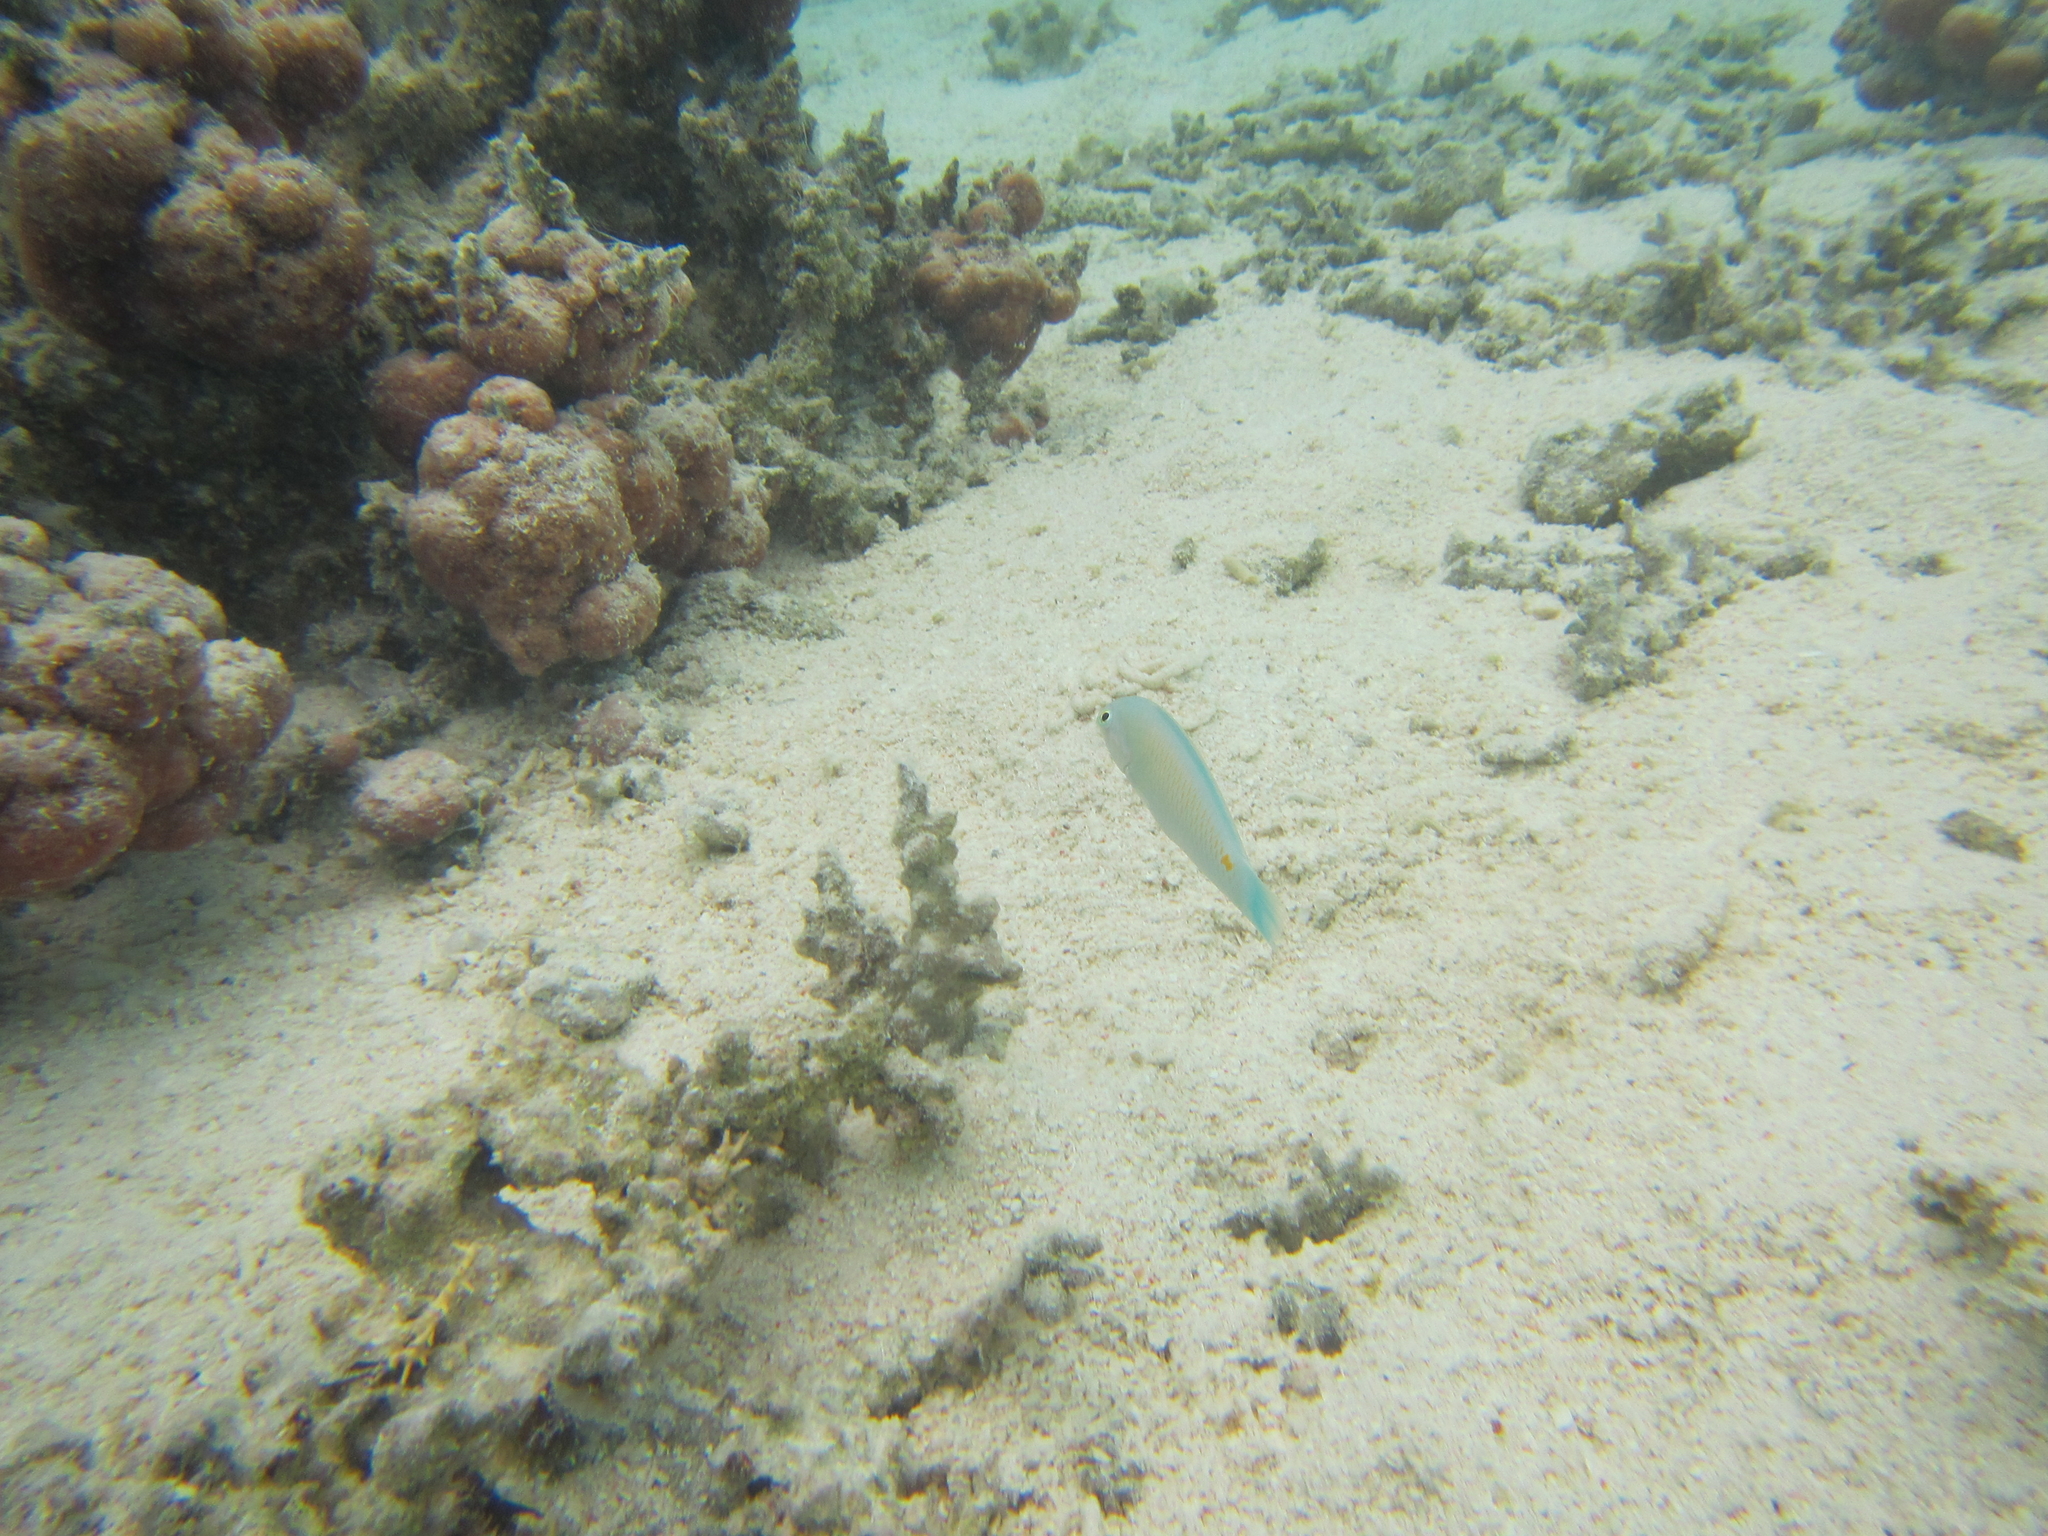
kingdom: Animalia
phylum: Chordata
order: Perciformes
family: Labridae
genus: Halichoeres
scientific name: Halichoeres trimaculatus
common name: Three-spot wrasse
